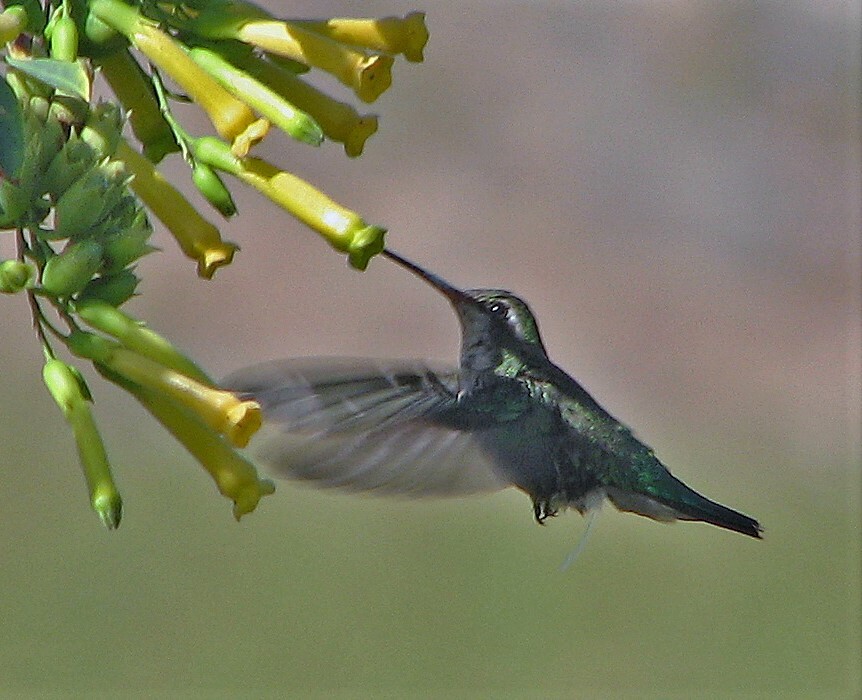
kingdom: Animalia
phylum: Chordata
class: Aves
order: Apodiformes
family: Trochilidae
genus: Chlorostilbon
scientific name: Chlorostilbon lucidus
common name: Glittering-bellied emerald
